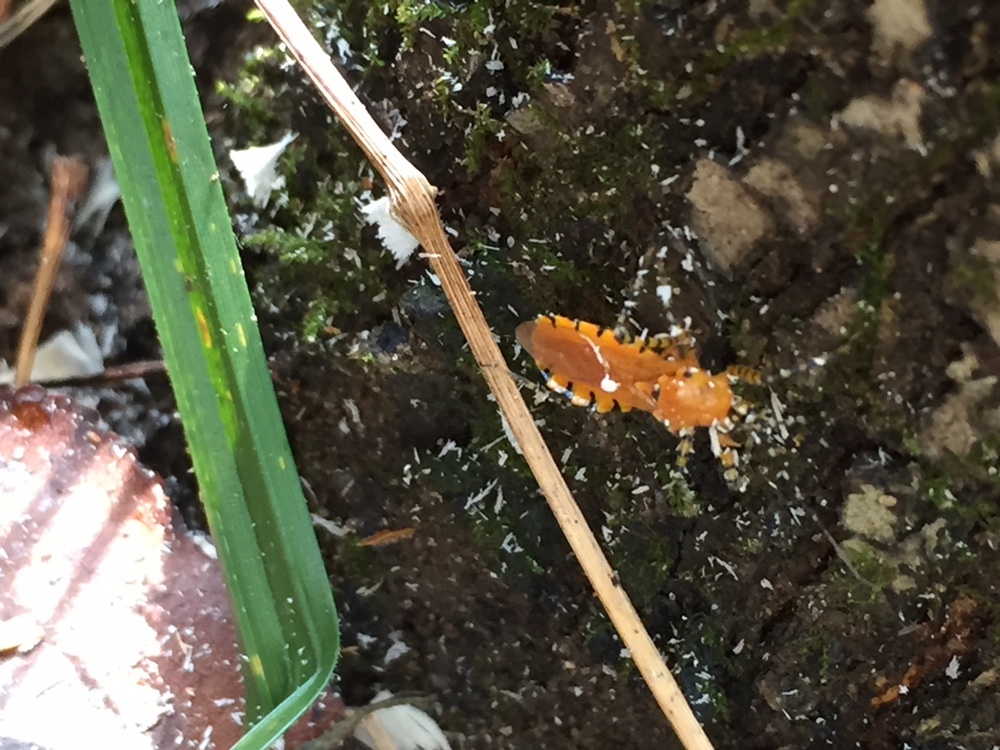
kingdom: Animalia
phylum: Arthropoda
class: Insecta
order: Hemiptera
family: Reduviidae
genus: Pselliopus
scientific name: Pselliopus barberi
